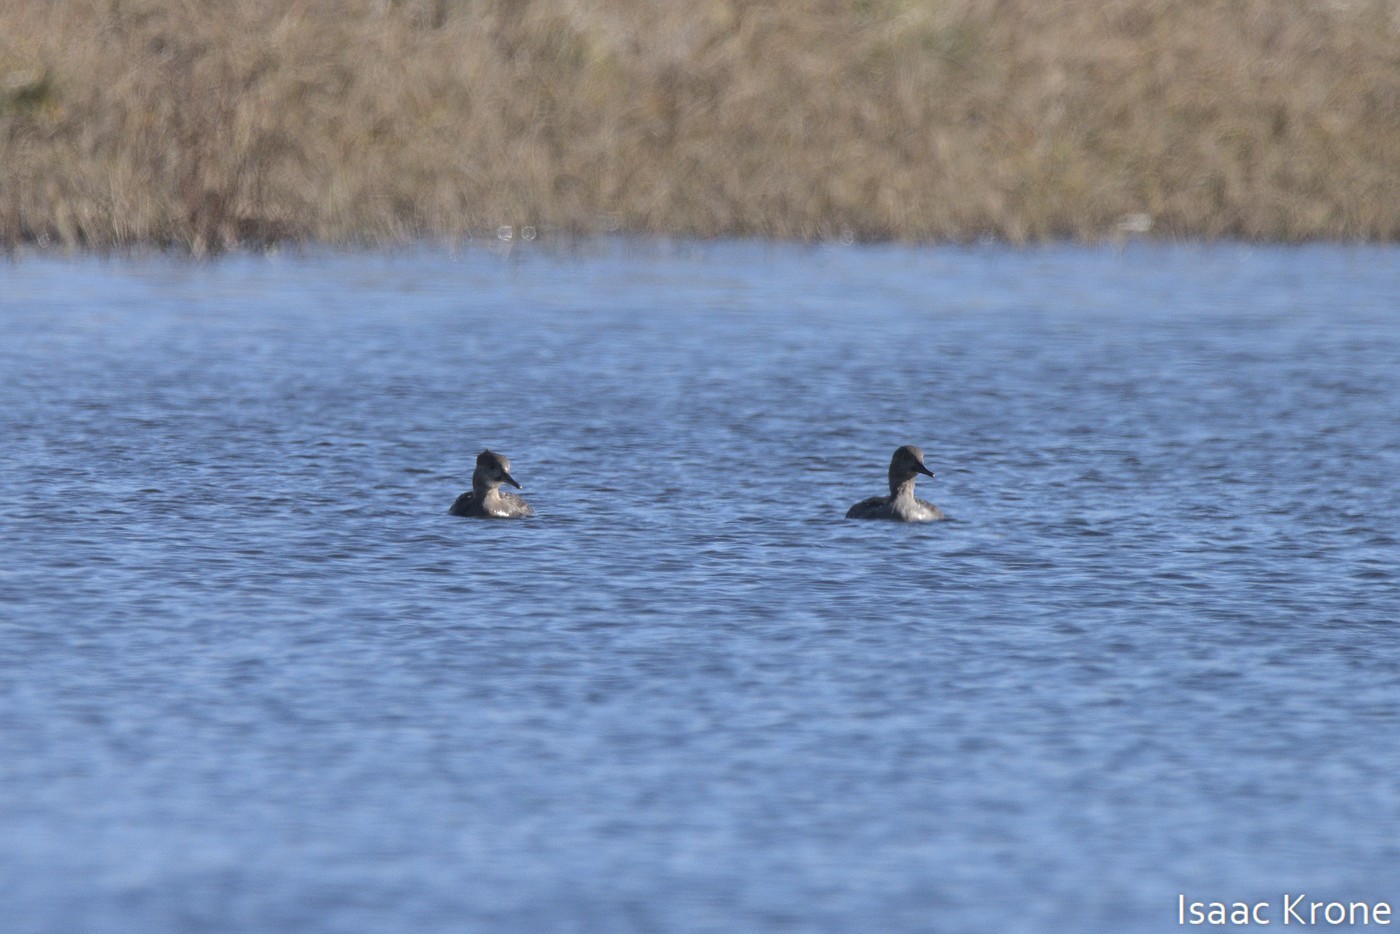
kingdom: Animalia
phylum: Chordata
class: Aves
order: Anseriformes
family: Anatidae
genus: Lophodytes
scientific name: Lophodytes cucullatus
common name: Hooded merganser
